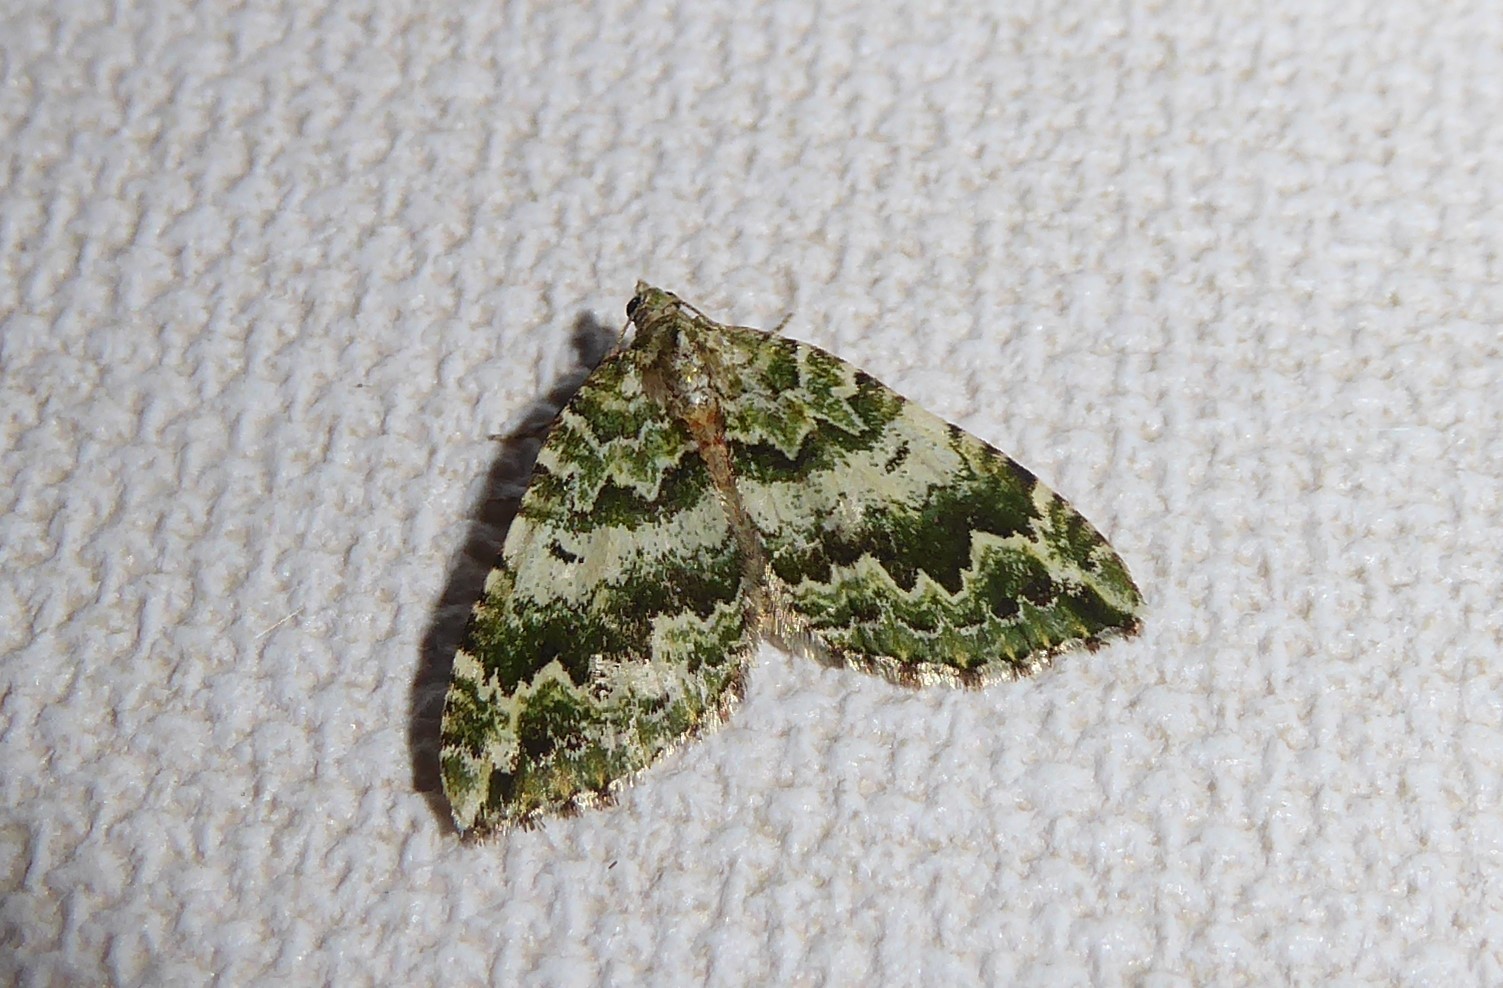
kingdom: Animalia
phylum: Arthropoda
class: Insecta
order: Lepidoptera
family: Geometridae
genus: Asaphodes
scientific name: Asaphodes beata
